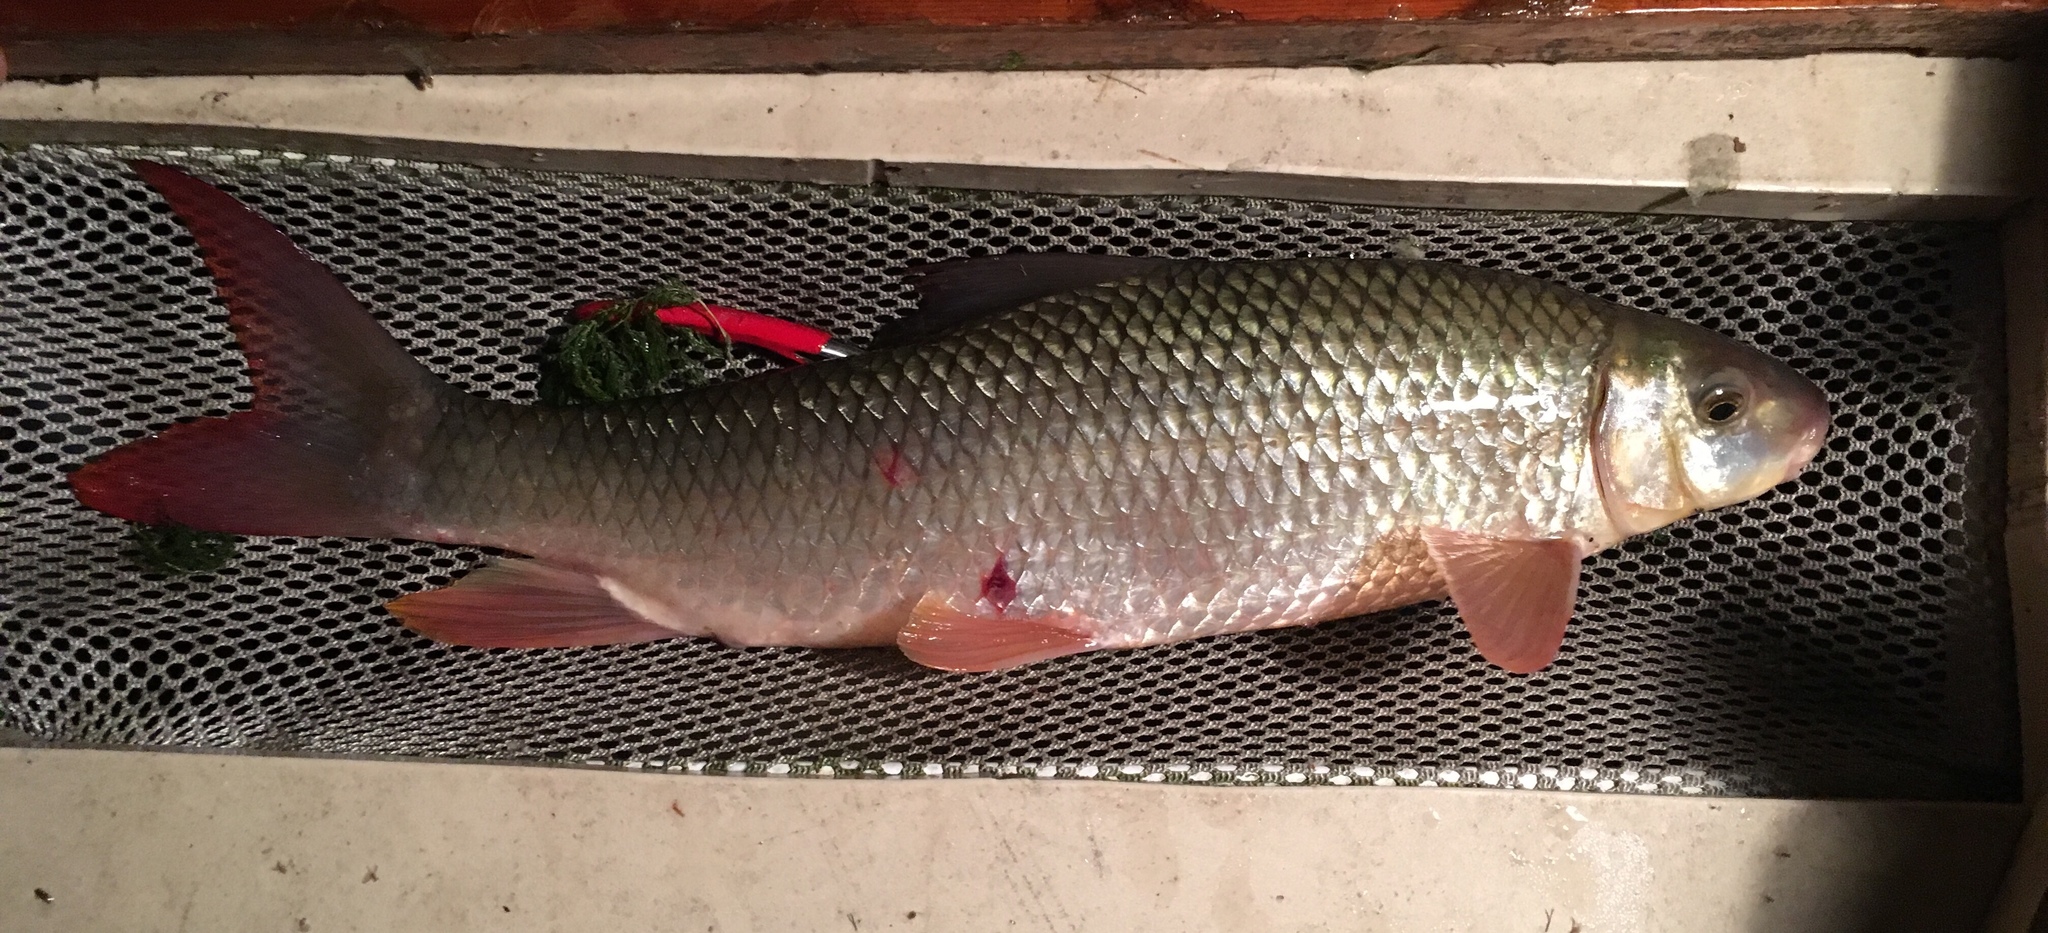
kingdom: Animalia
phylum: Chordata
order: Cypriniformes
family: Catostomidae
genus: Moxostoma
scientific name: Moxostoma macrolepidotum
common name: Shorthead redhorse
